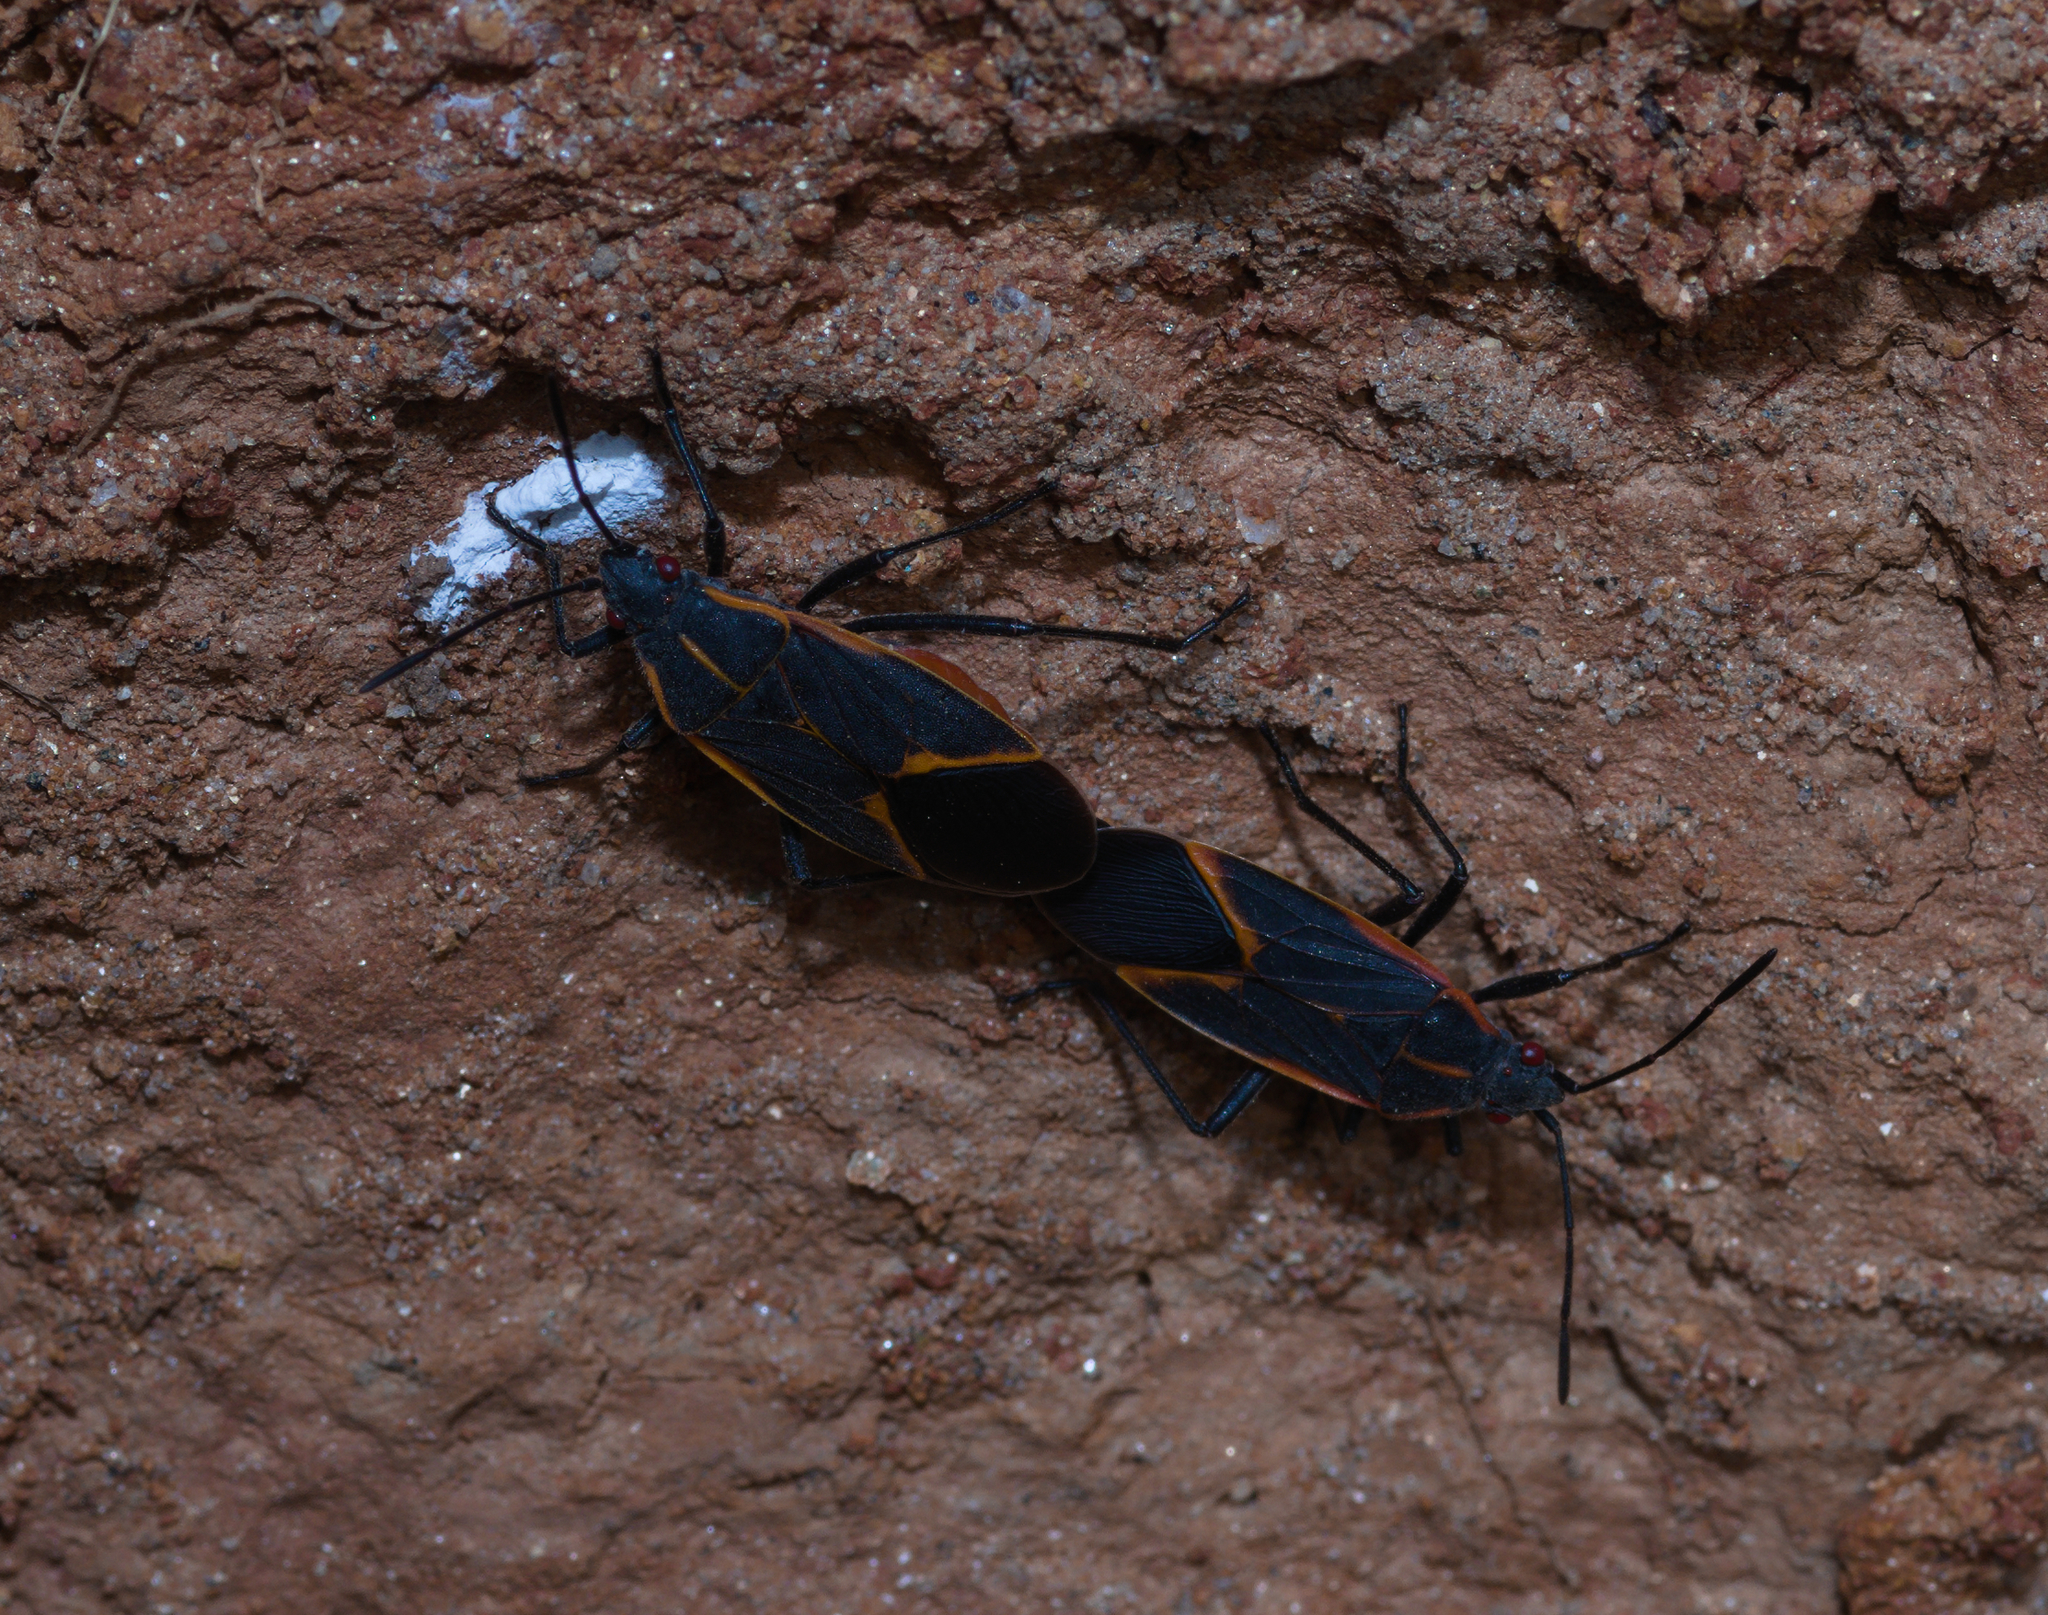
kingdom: Animalia
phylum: Arthropoda
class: Insecta
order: Hemiptera
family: Rhopalidae
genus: Boisea
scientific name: Boisea trivittata
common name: Boxelder bug
